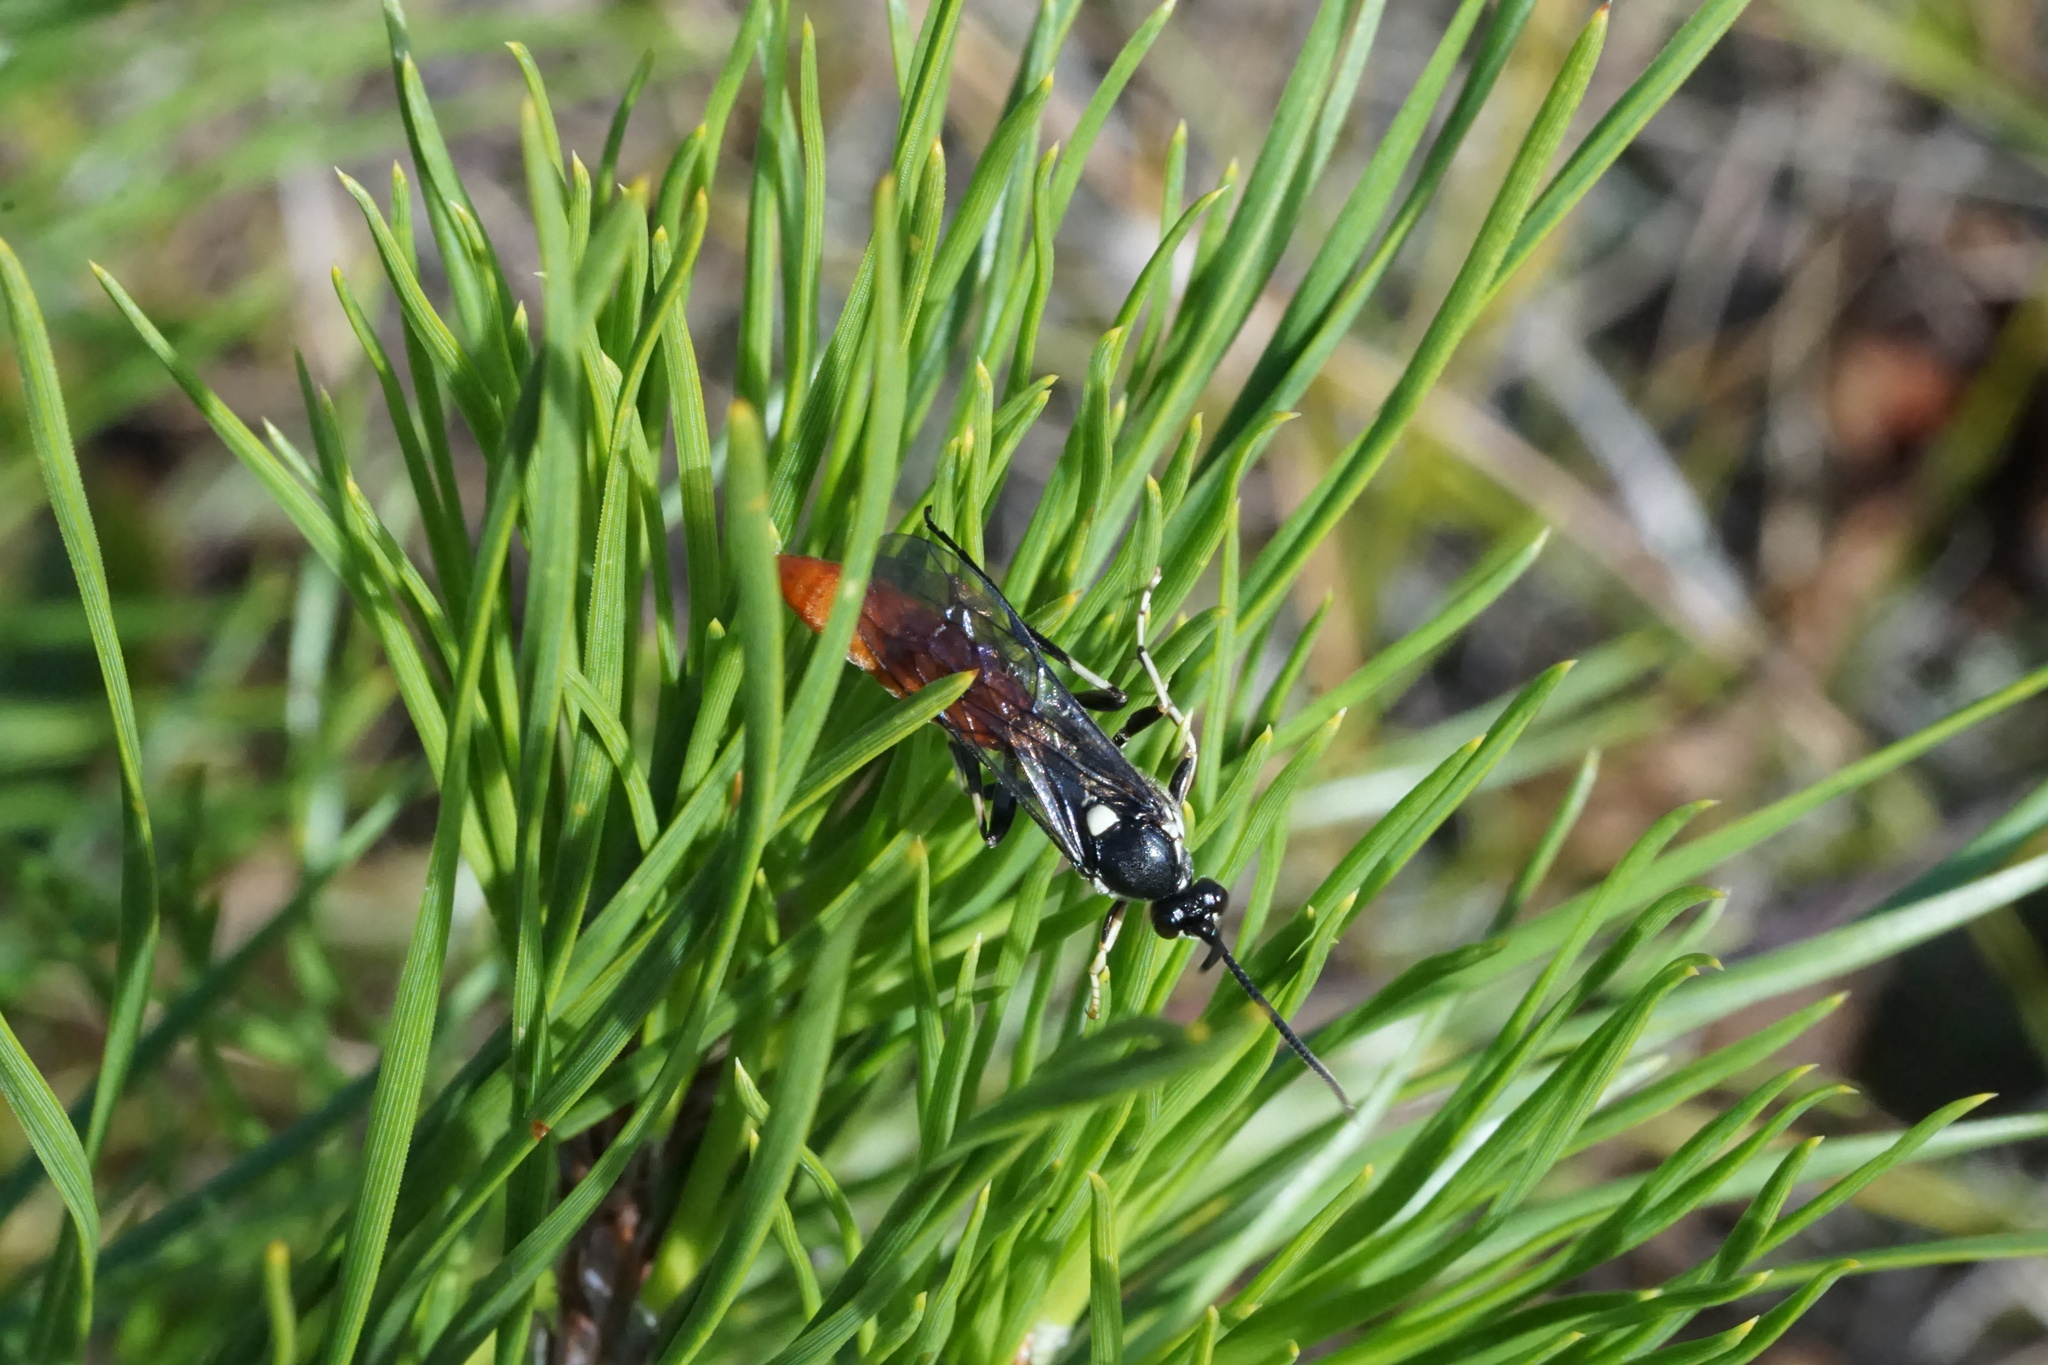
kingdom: Animalia
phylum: Arthropoda
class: Insecta
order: Hymenoptera
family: Ichneumonidae
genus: Ichneumon
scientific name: Ichneumon devinctor
